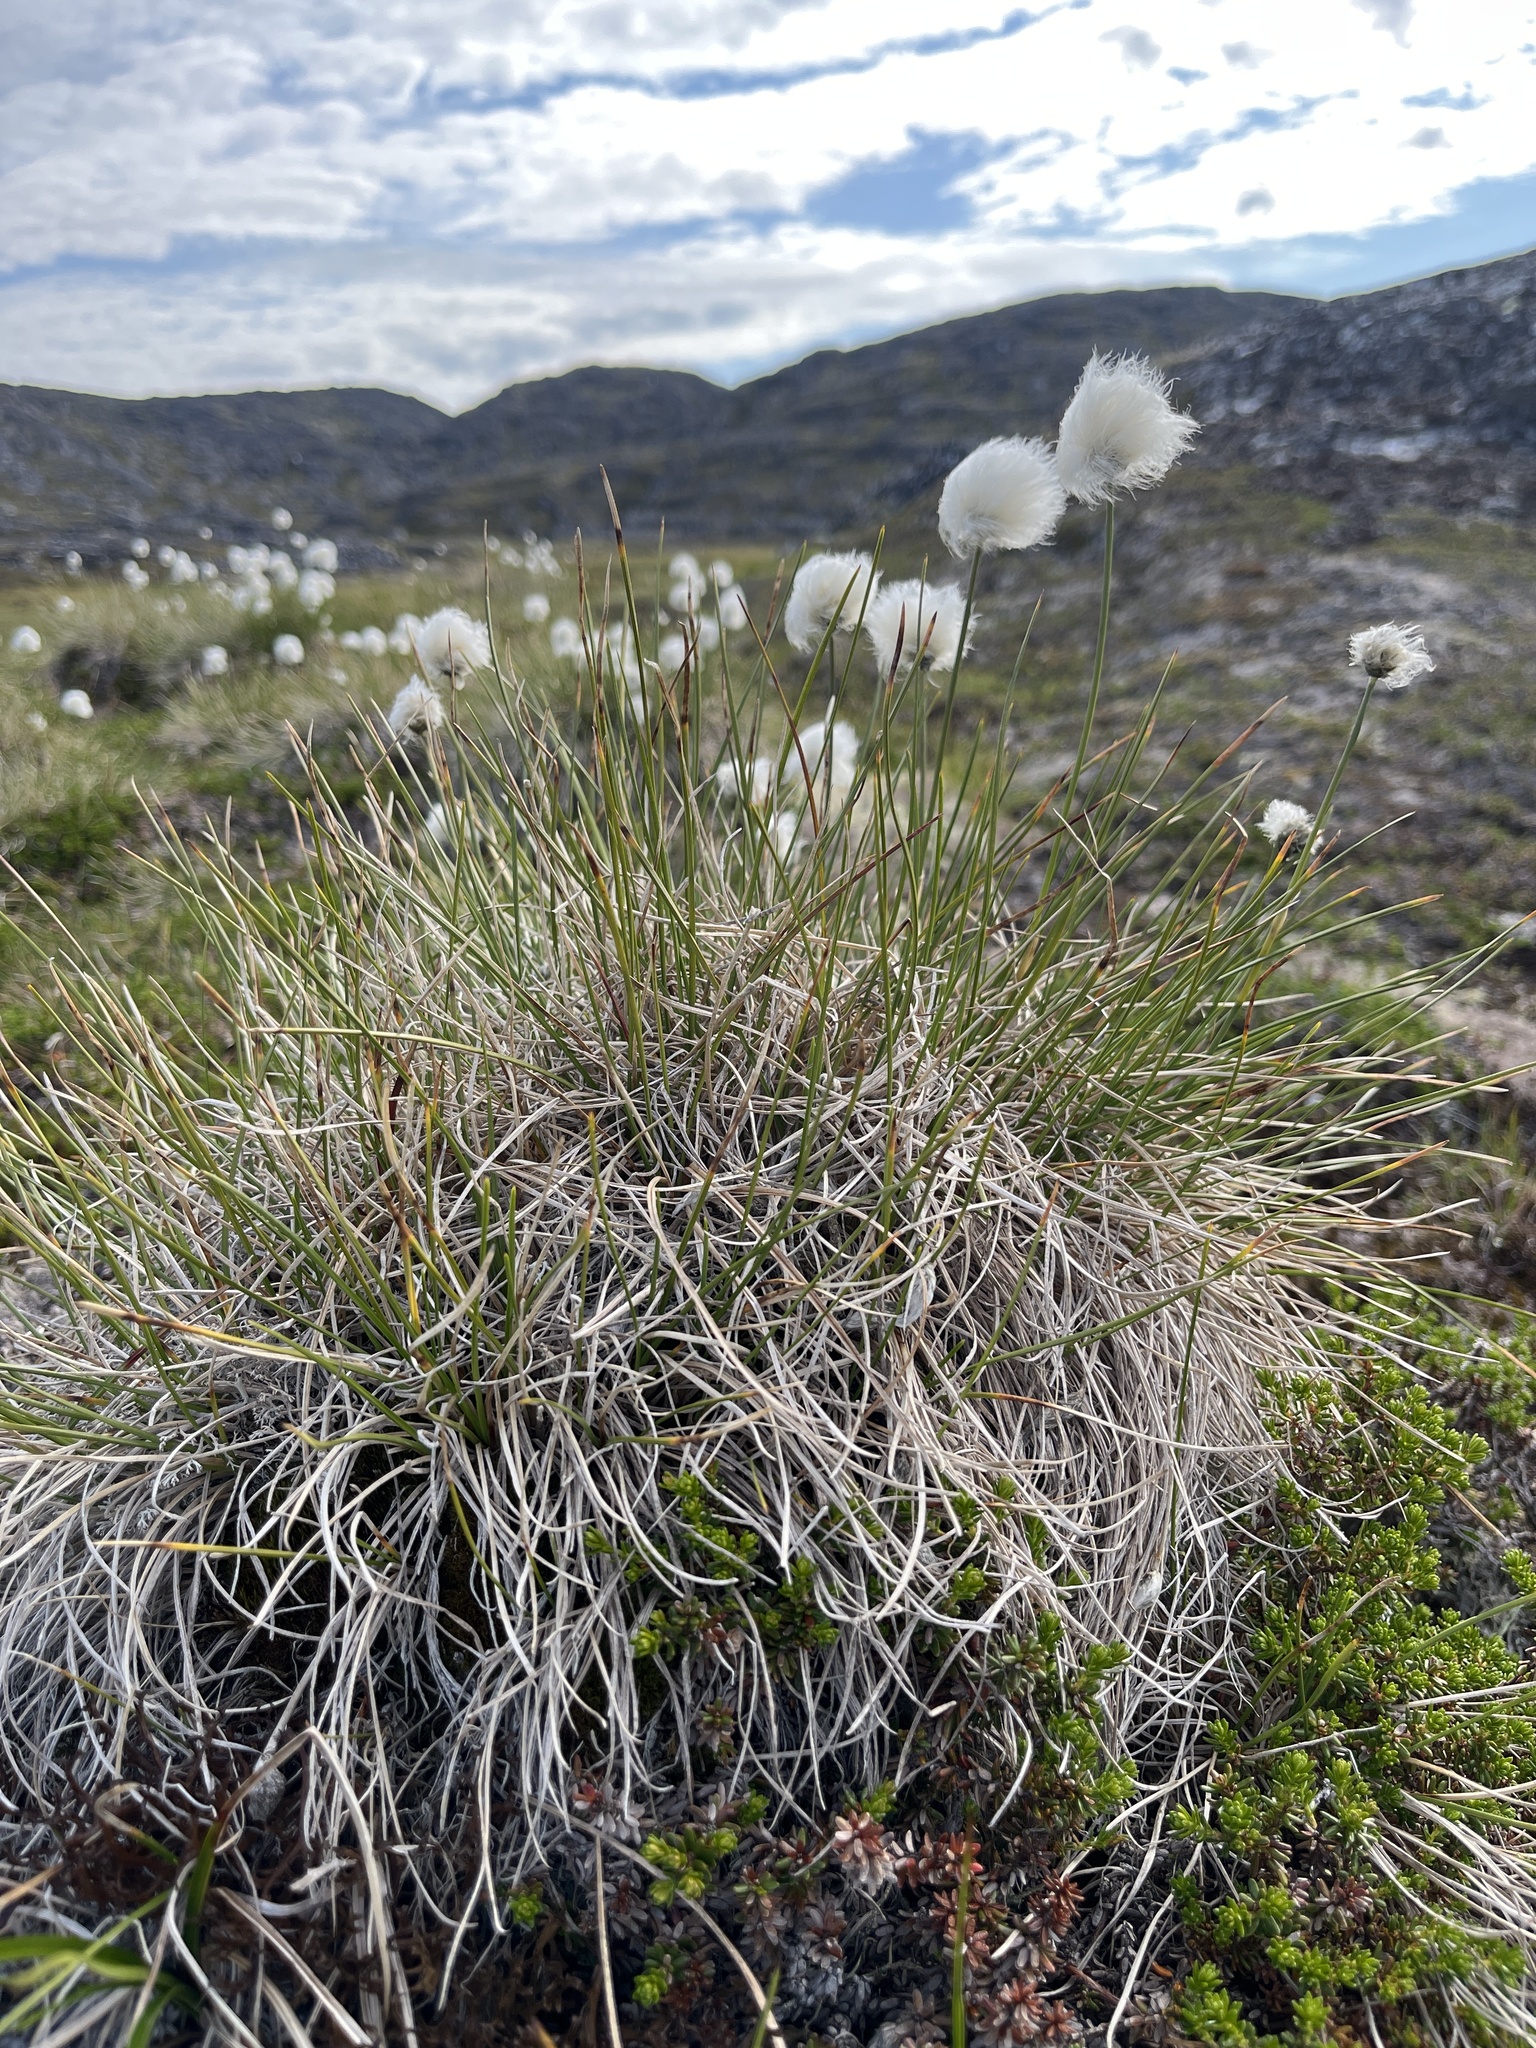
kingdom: Plantae
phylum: Tracheophyta
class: Liliopsida
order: Poales
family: Cyperaceae
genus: Eriophorum
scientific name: Eriophorum vaginatum
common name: Hare's-tail cottongrass
